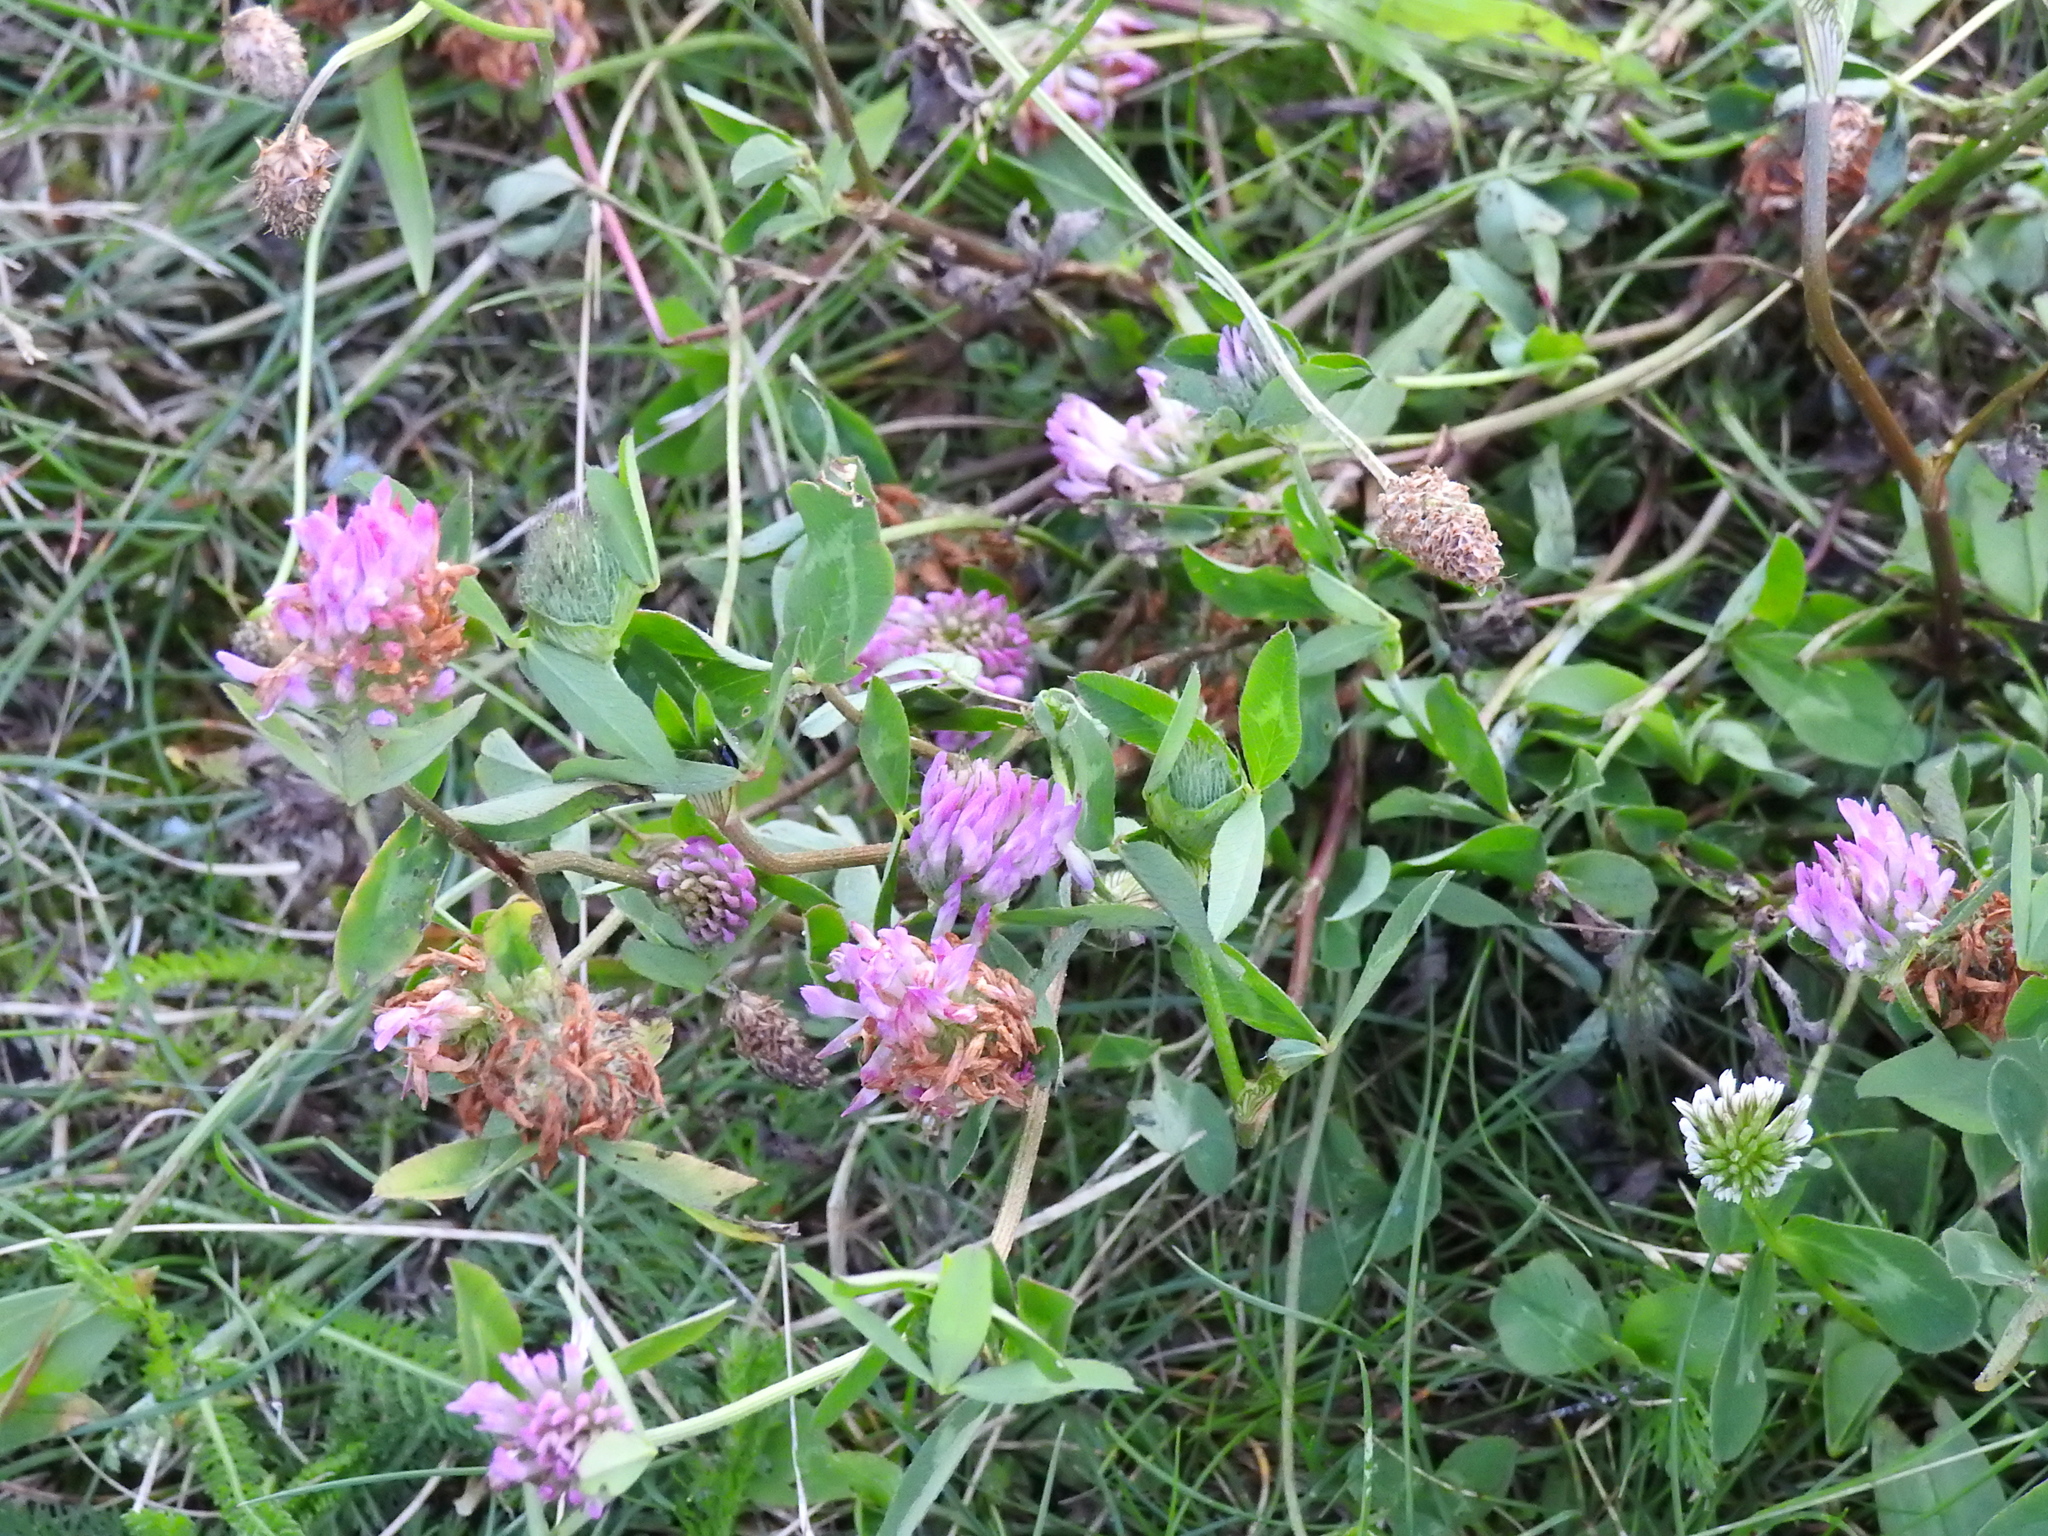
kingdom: Plantae
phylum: Tracheophyta
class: Magnoliopsida
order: Fabales
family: Fabaceae
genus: Trifolium
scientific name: Trifolium pratense
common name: Red clover
